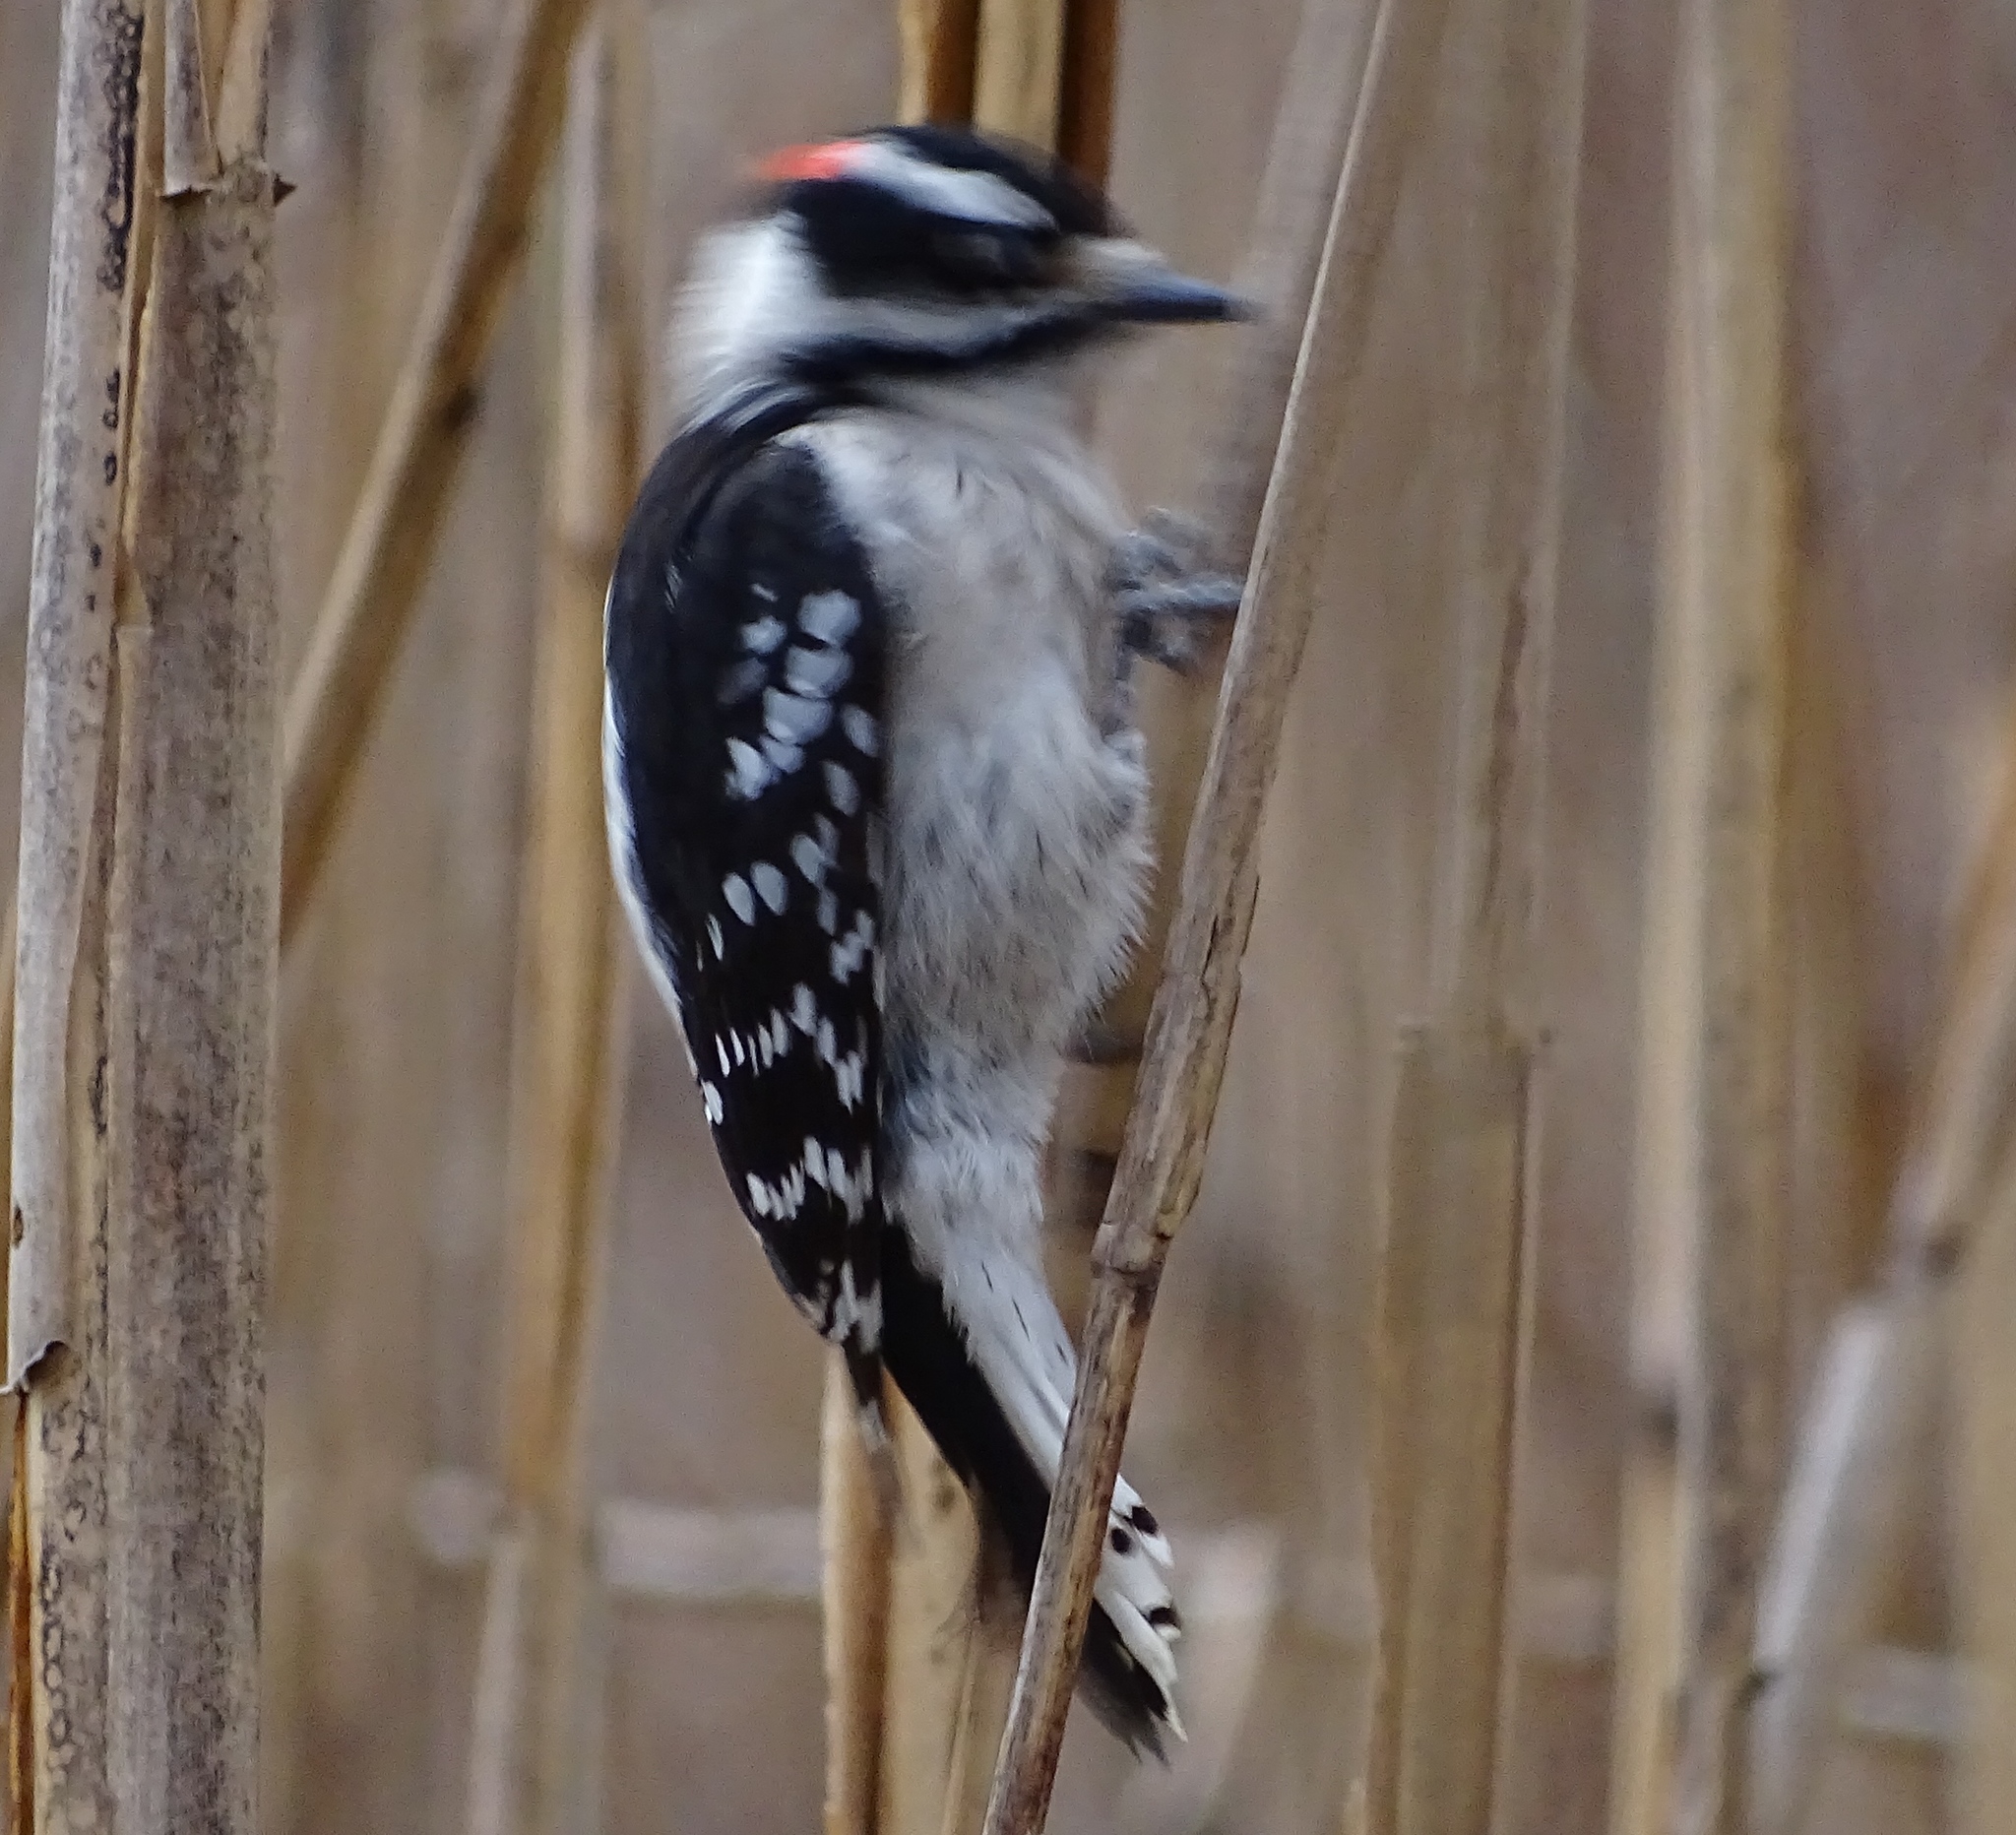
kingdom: Animalia
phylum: Chordata
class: Aves
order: Piciformes
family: Picidae
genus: Dryobates
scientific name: Dryobates pubescens
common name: Downy woodpecker
